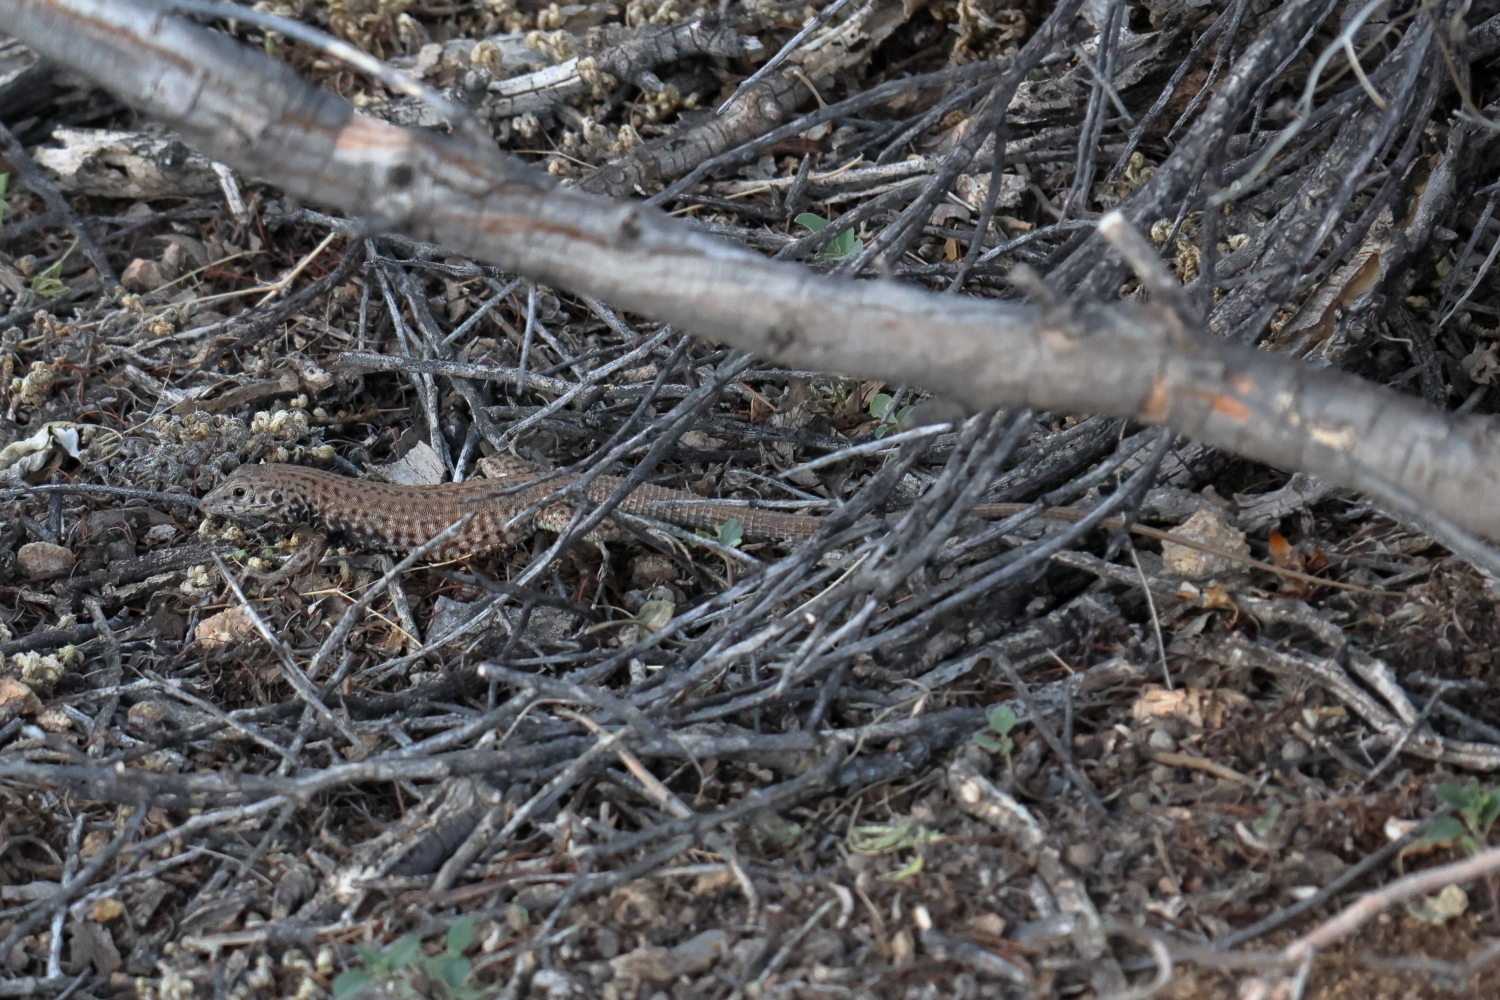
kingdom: Animalia
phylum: Chordata
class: Squamata
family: Teiidae
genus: Aspidoscelis
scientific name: Aspidoscelis tigris
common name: Tiger whiptail
